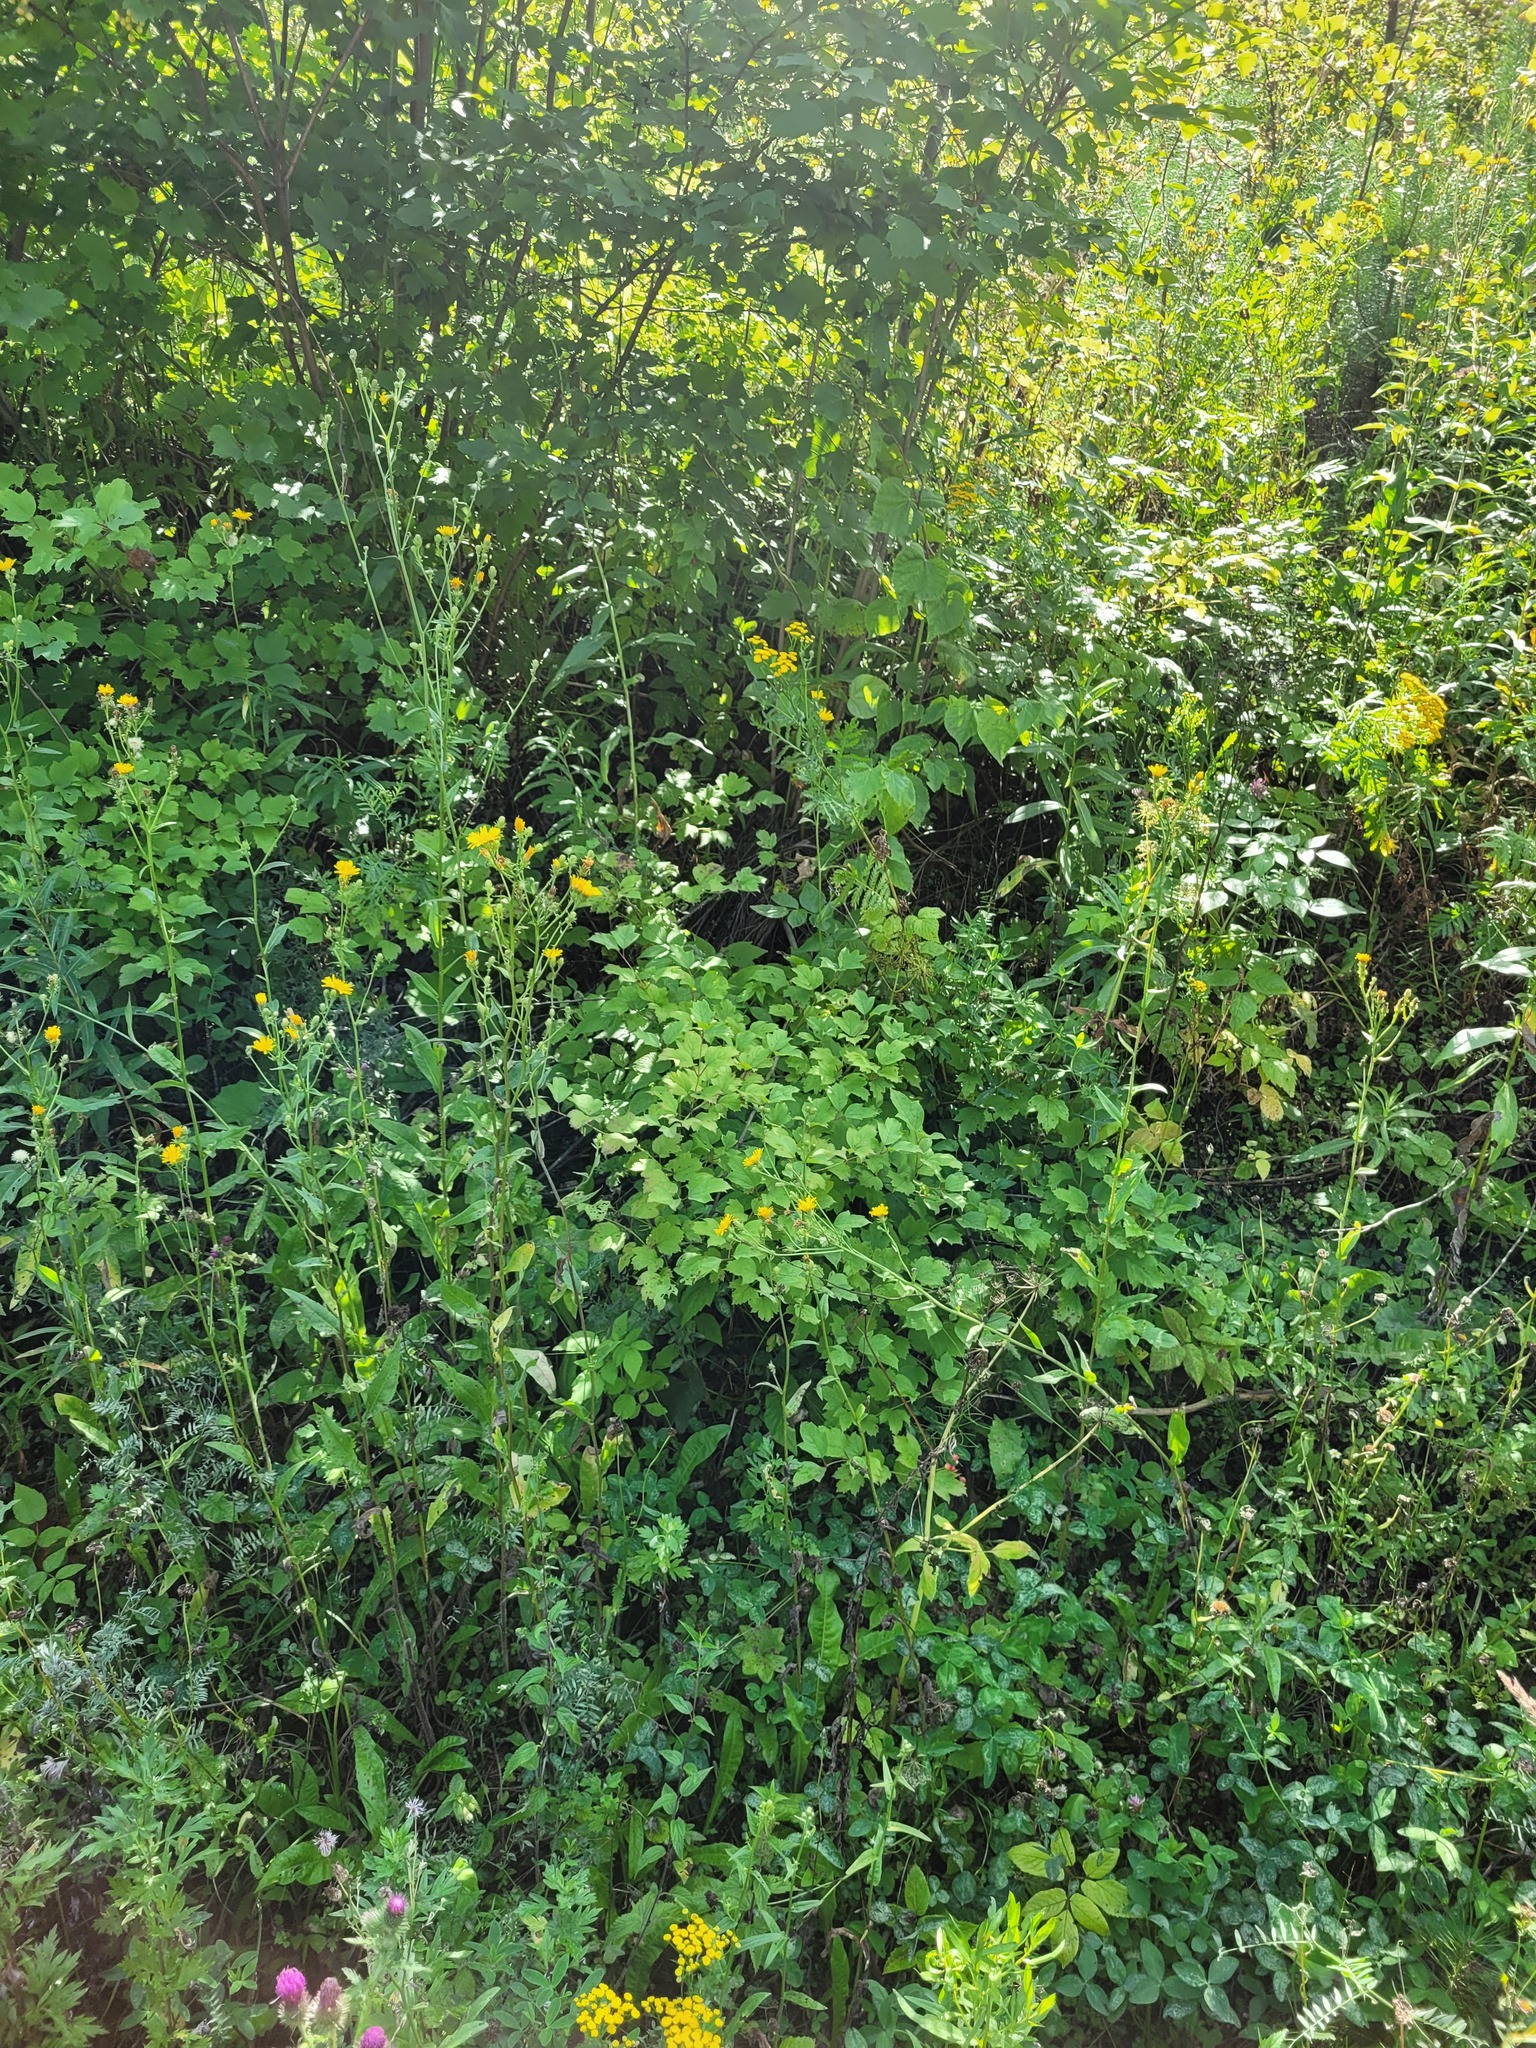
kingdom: Plantae
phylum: Tracheophyta
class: Magnoliopsida
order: Dipsacales
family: Viburnaceae
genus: Viburnum
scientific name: Viburnum opulus
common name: Guelder-rose
